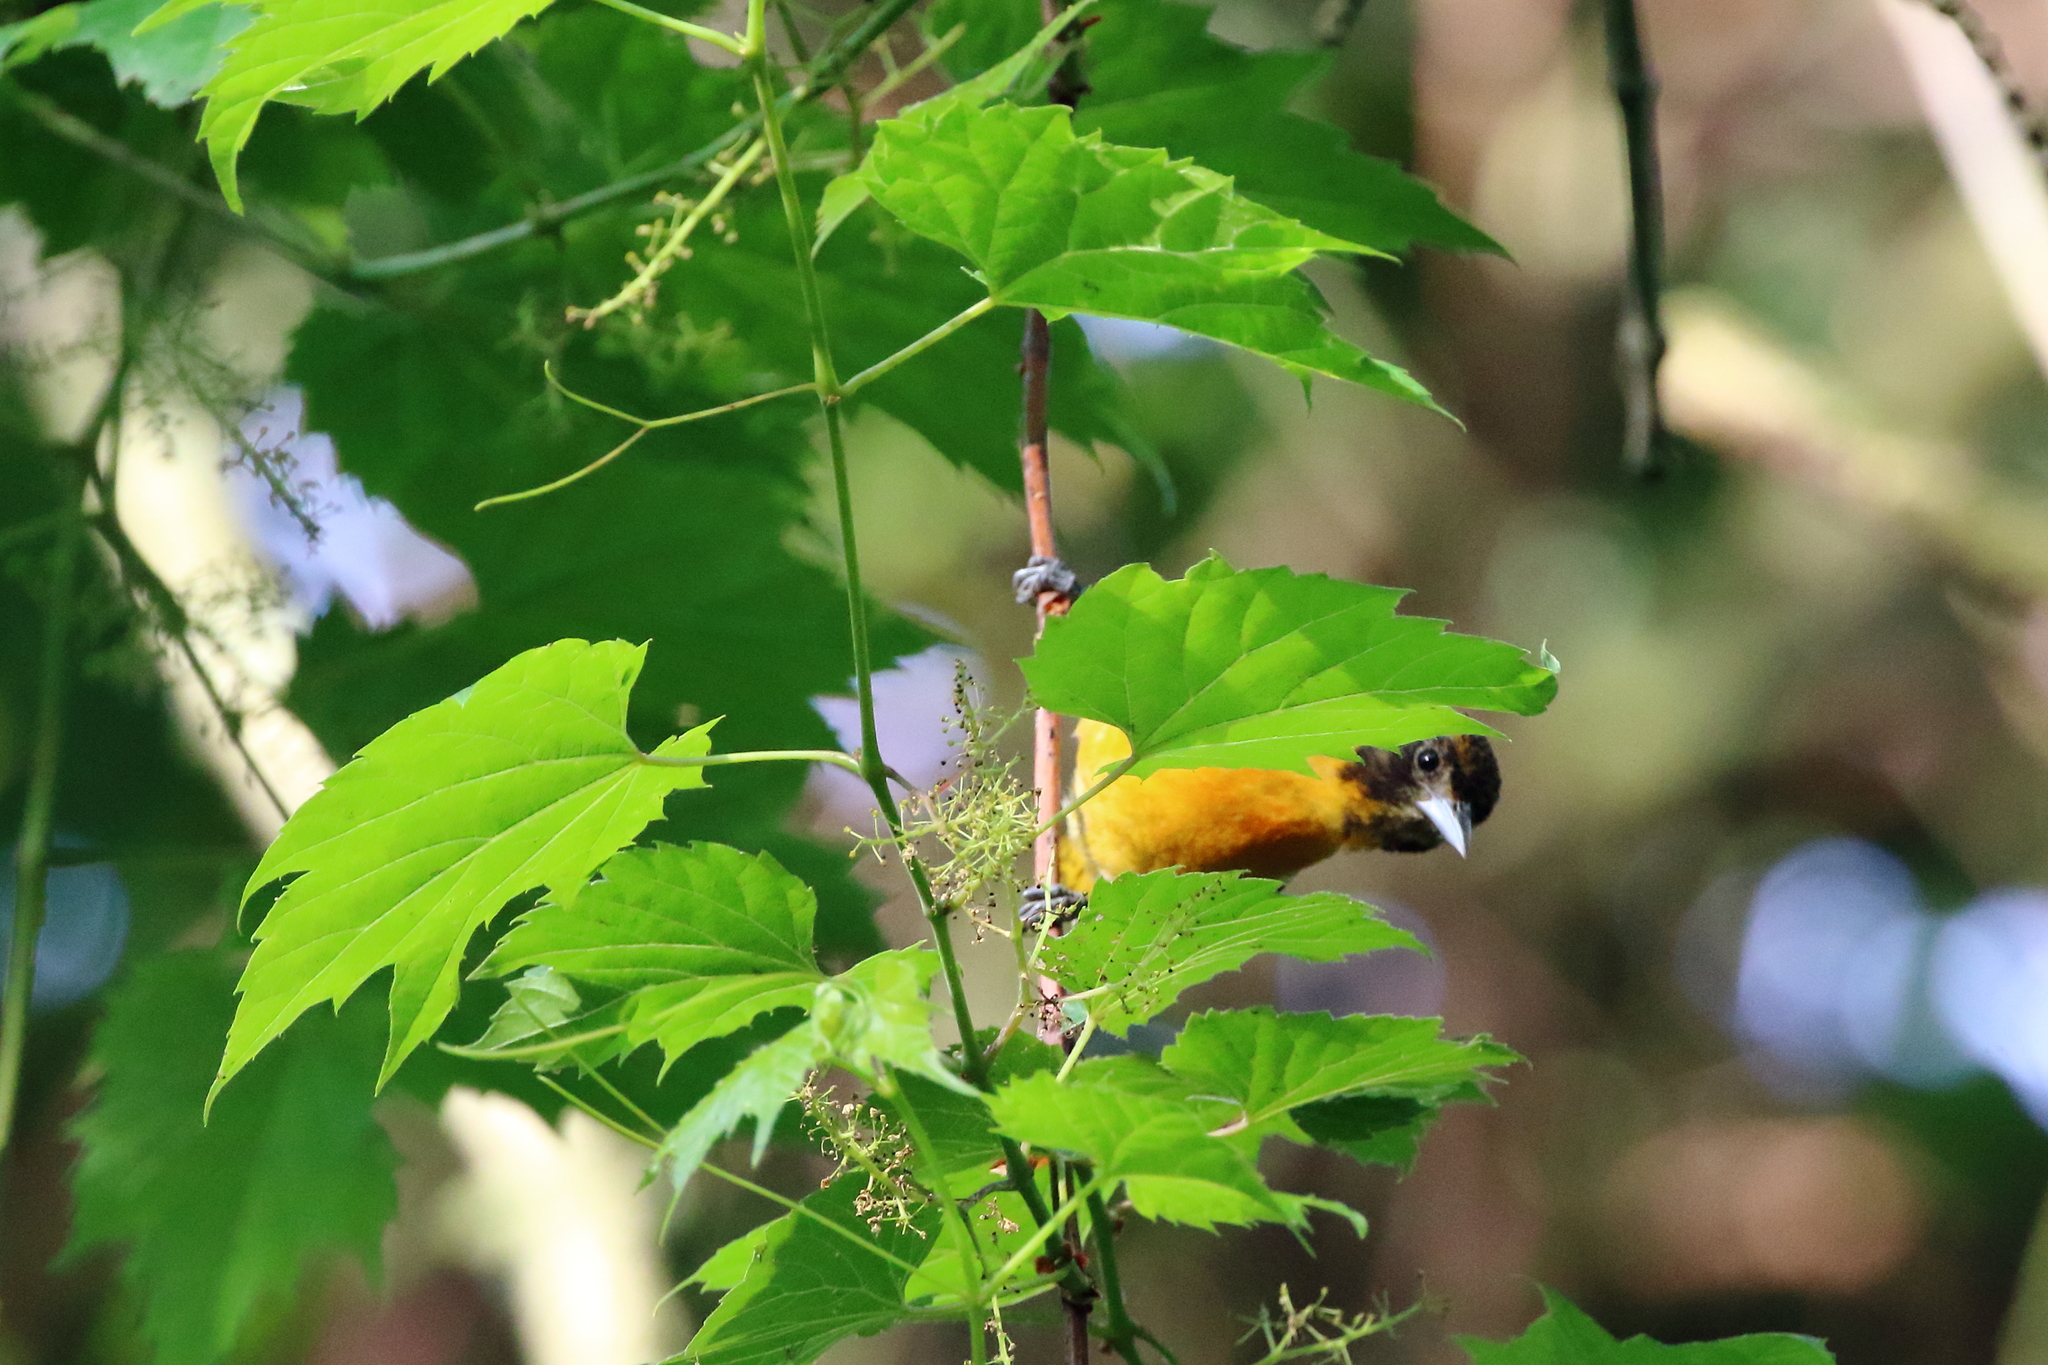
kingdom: Animalia
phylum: Chordata
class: Aves
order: Passeriformes
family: Icteridae
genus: Icterus
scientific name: Icterus galbula
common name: Baltimore oriole
